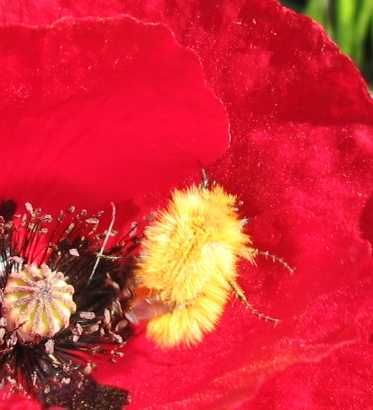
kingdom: Animalia
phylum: Arthropoda
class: Insecta
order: Coleoptera
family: Glaphyridae
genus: Pygopleurus
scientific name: Pygopleurus vulpes
